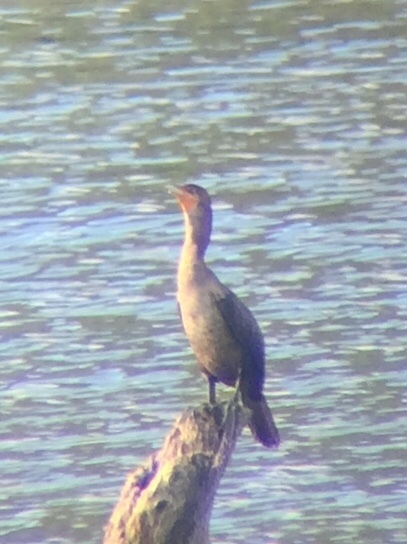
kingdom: Animalia
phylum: Chordata
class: Aves
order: Suliformes
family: Phalacrocoracidae
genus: Phalacrocorax
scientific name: Phalacrocorax auritus
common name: Double-crested cormorant
